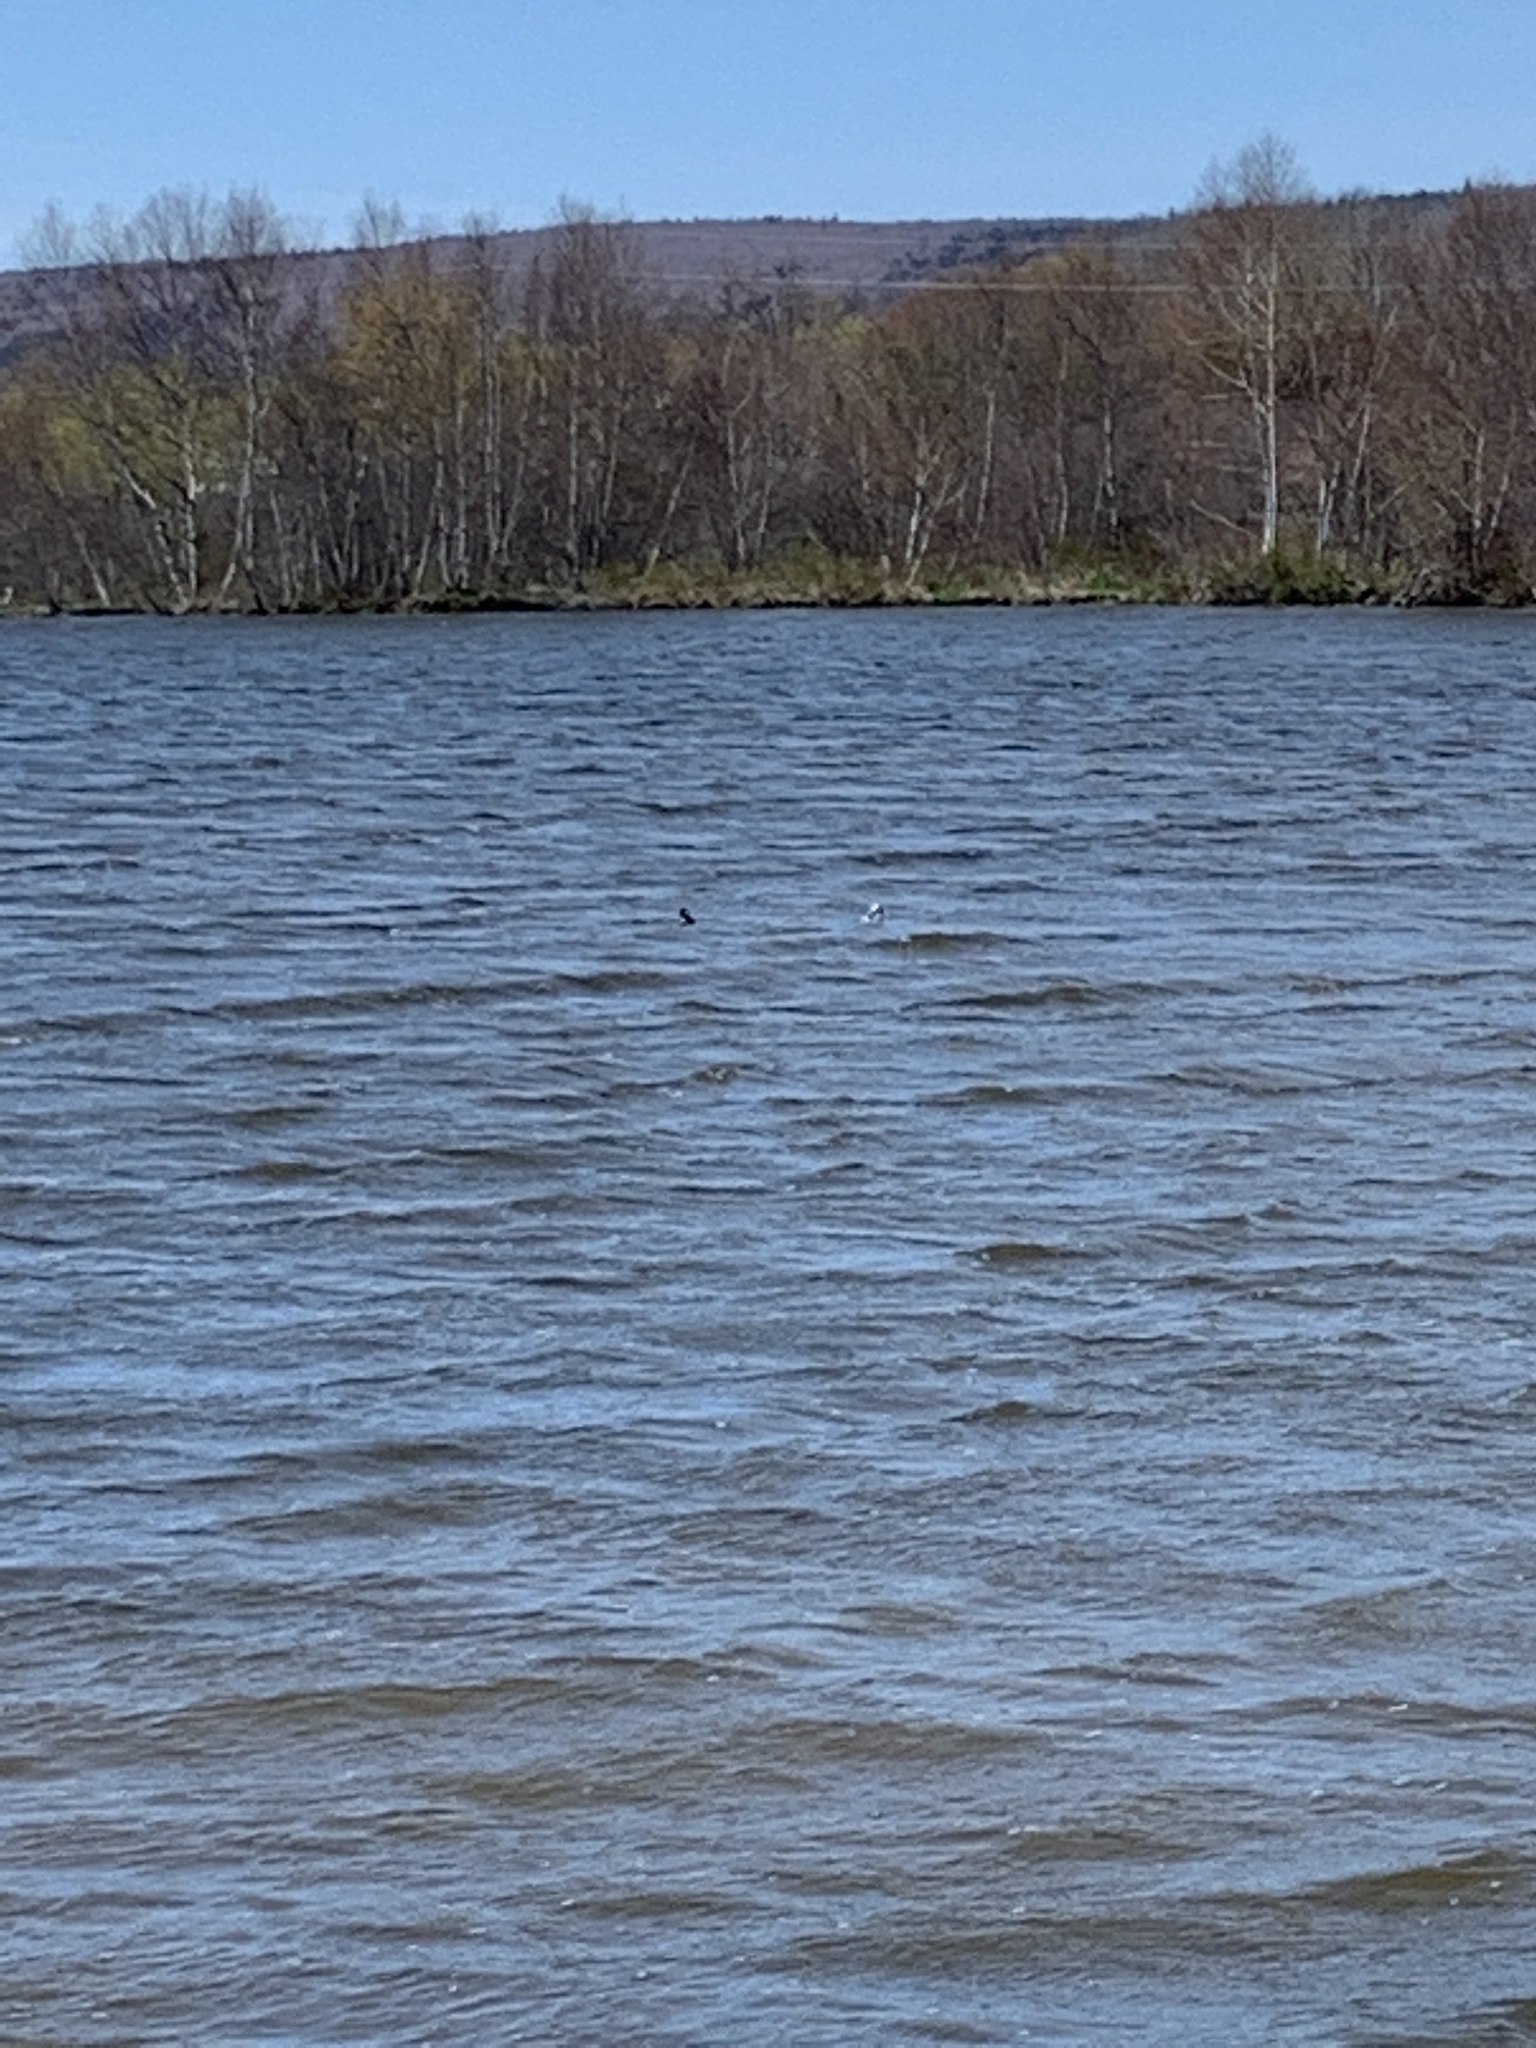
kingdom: Animalia
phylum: Chordata
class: Aves
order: Anseriformes
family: Anatidae
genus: Bucephala
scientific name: Bucephala albeola
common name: Bufflehead
